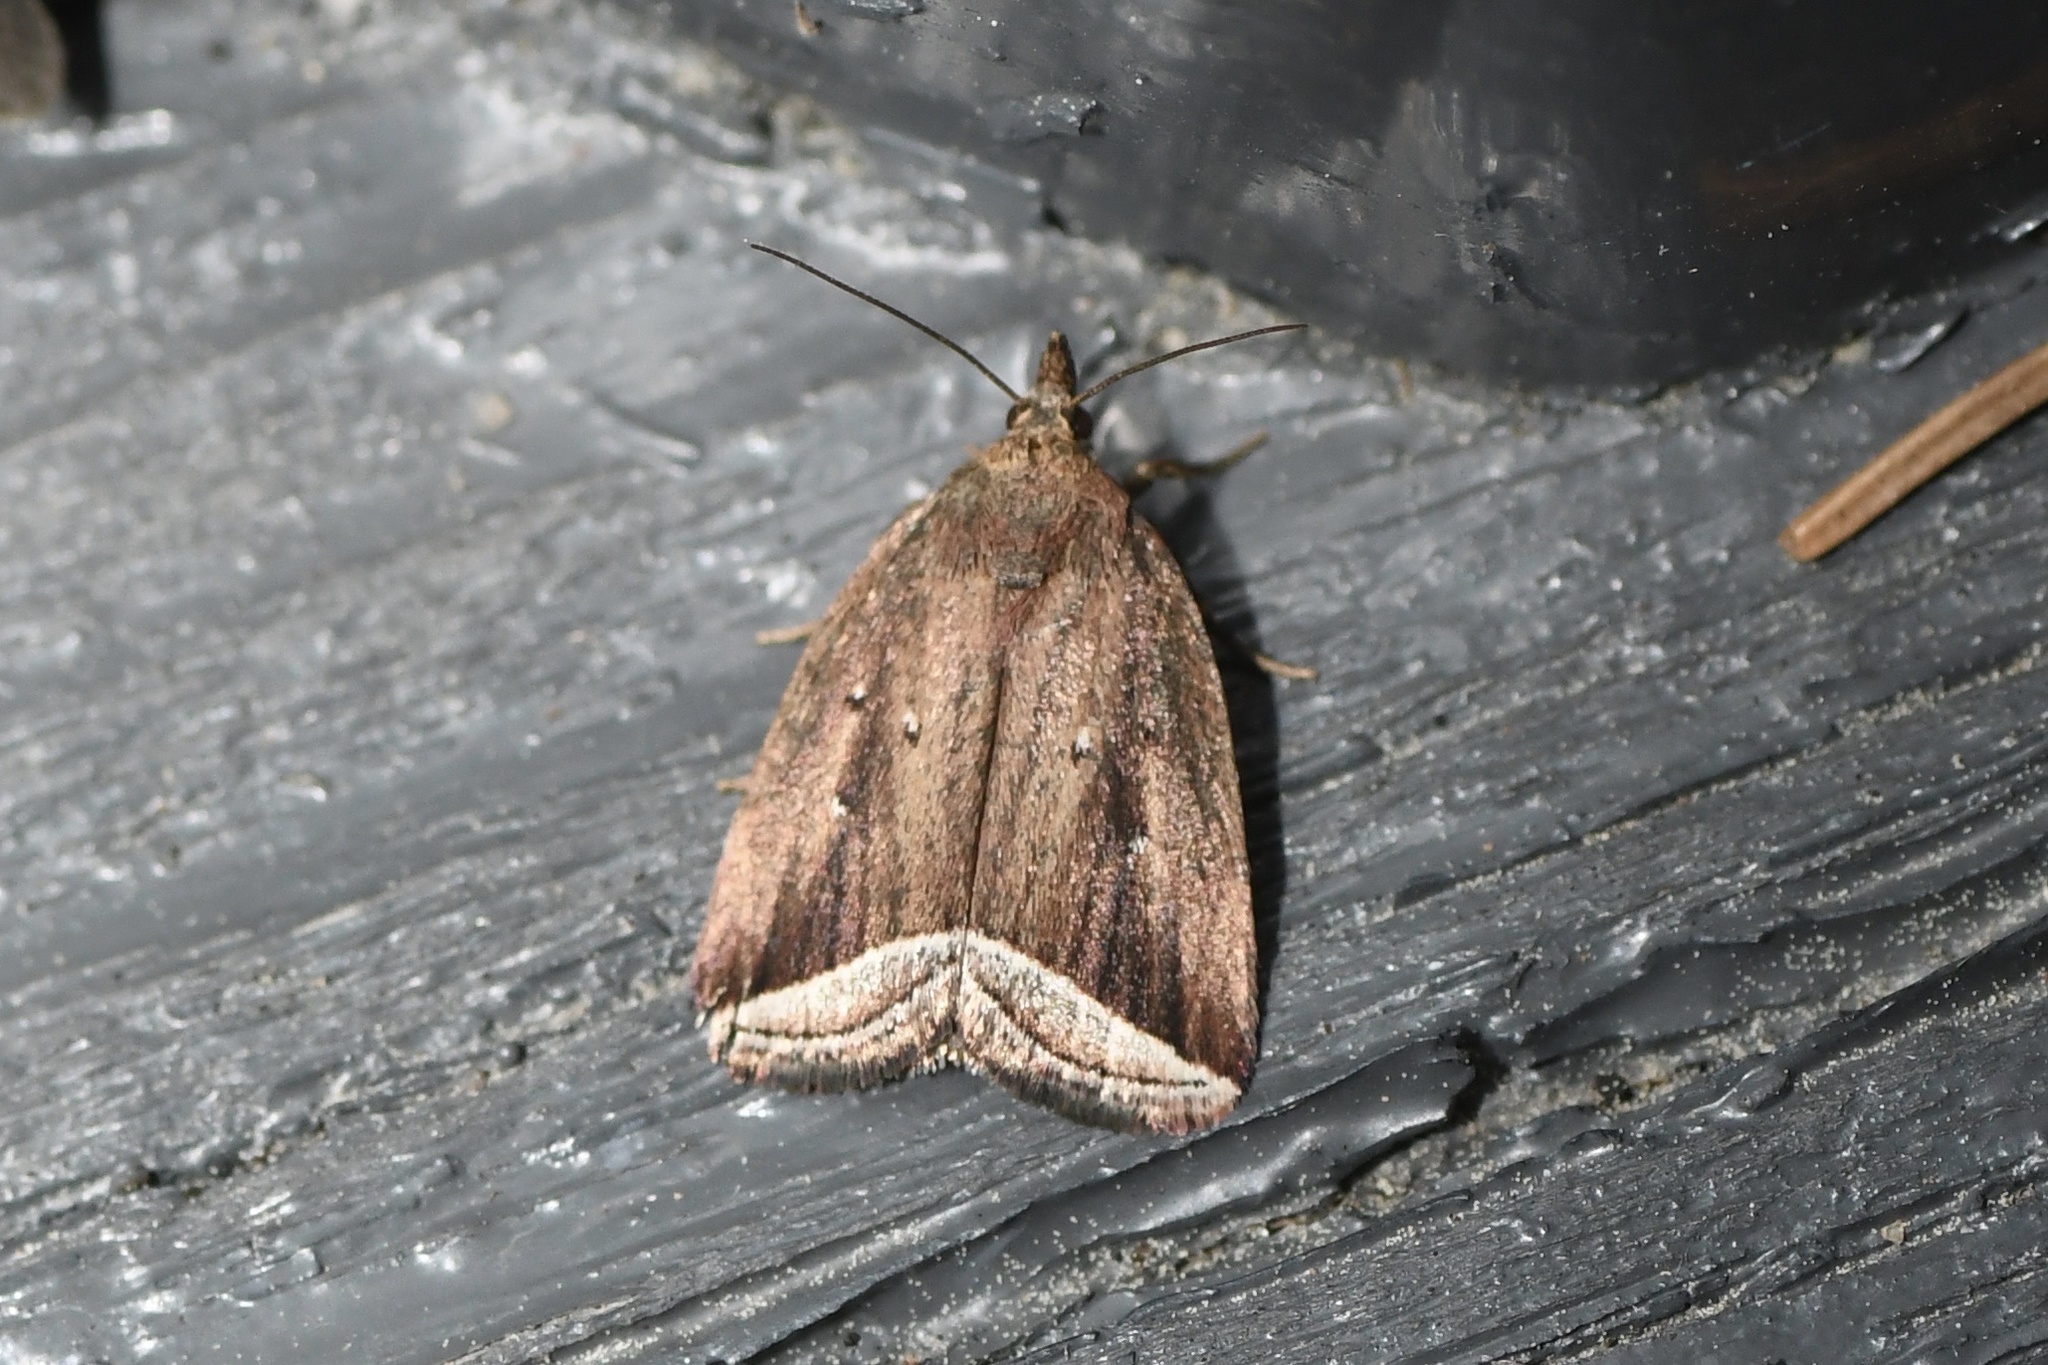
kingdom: Animalia
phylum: Arthropoda
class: Insecta
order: Lepidoptera
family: Erebidae
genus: Capis
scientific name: Capis curvata
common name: Curved halter moth
